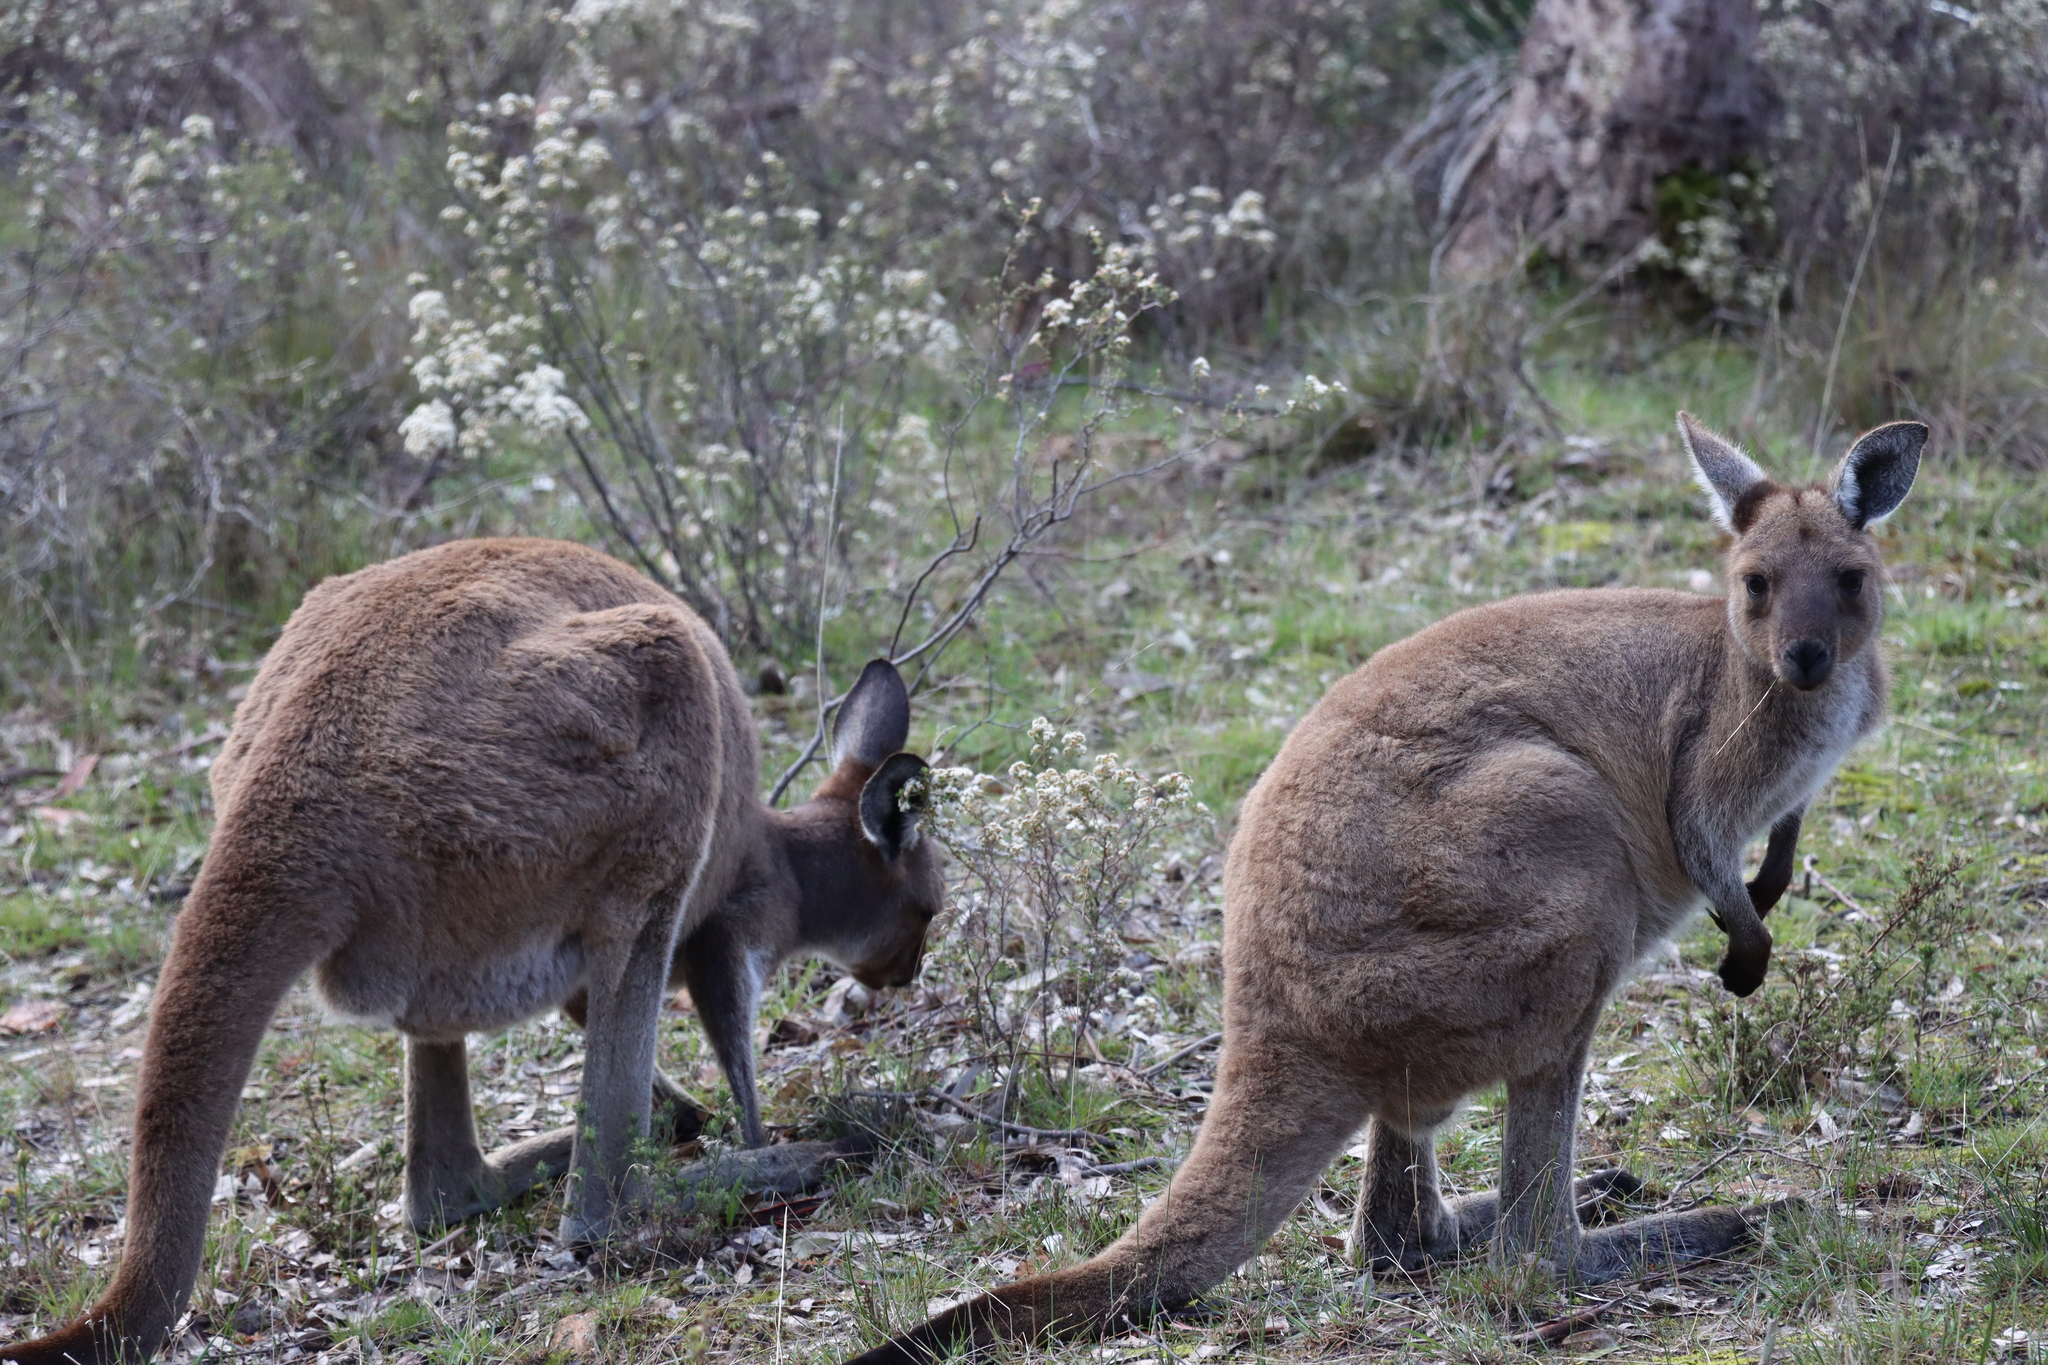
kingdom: Animalia
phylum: Chordata
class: Mammalia
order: Diprotodontia
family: Macropodidae
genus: Macropus
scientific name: Macropus fuliginosus
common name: Western grey kangaroo
